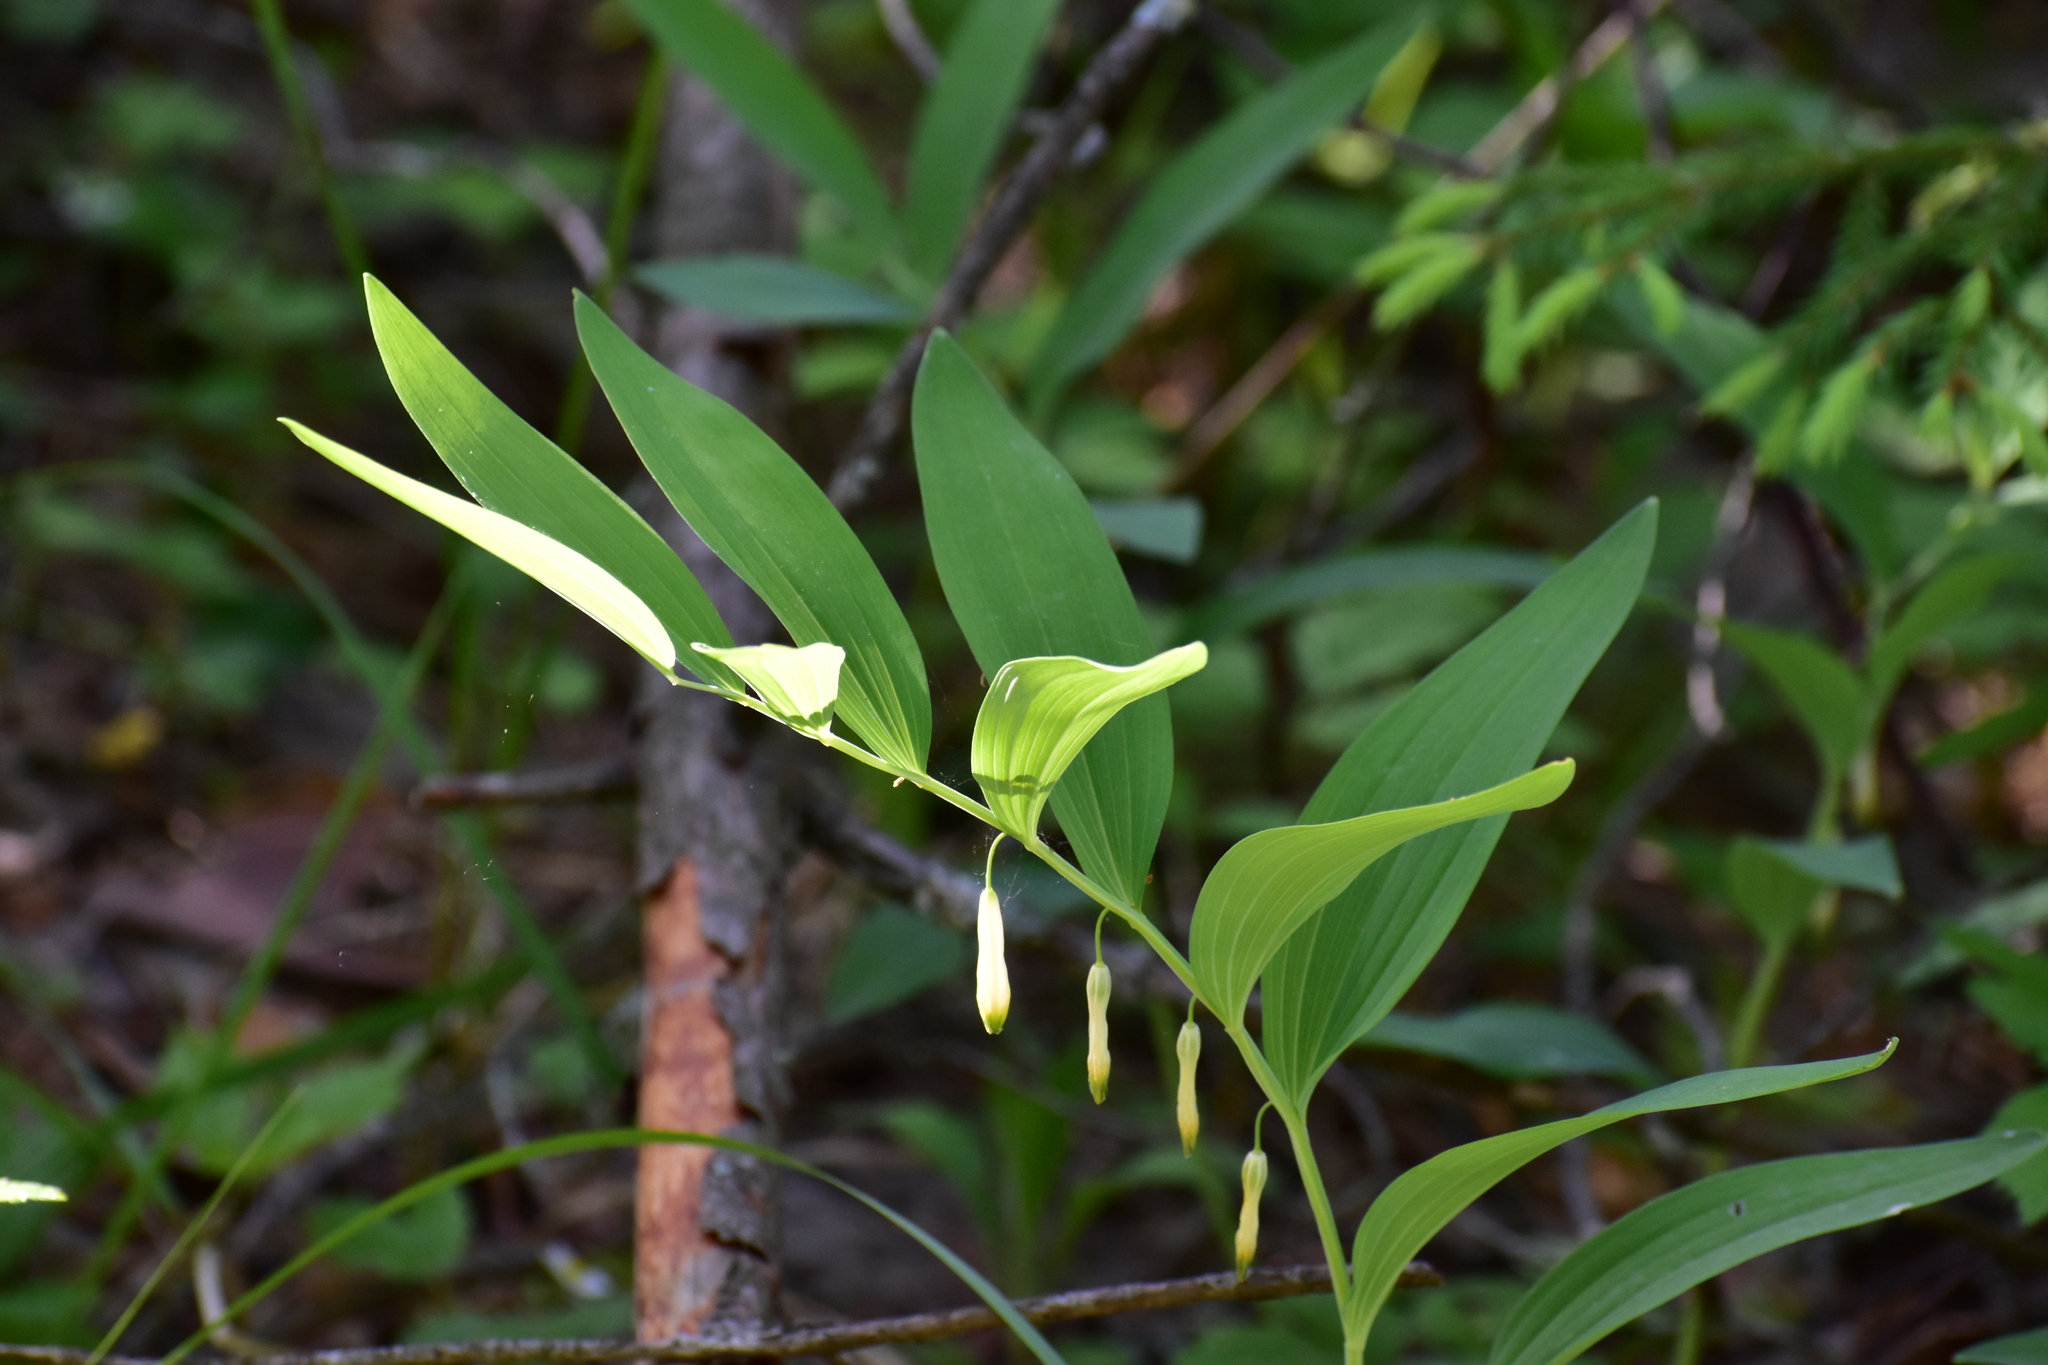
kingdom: Plantae
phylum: Tracheophyta
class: Liliopsida
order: Asparagales
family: Asparagaceae
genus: Polygonatum
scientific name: Polygonatum odoratum
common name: Angular solomon's-seal
